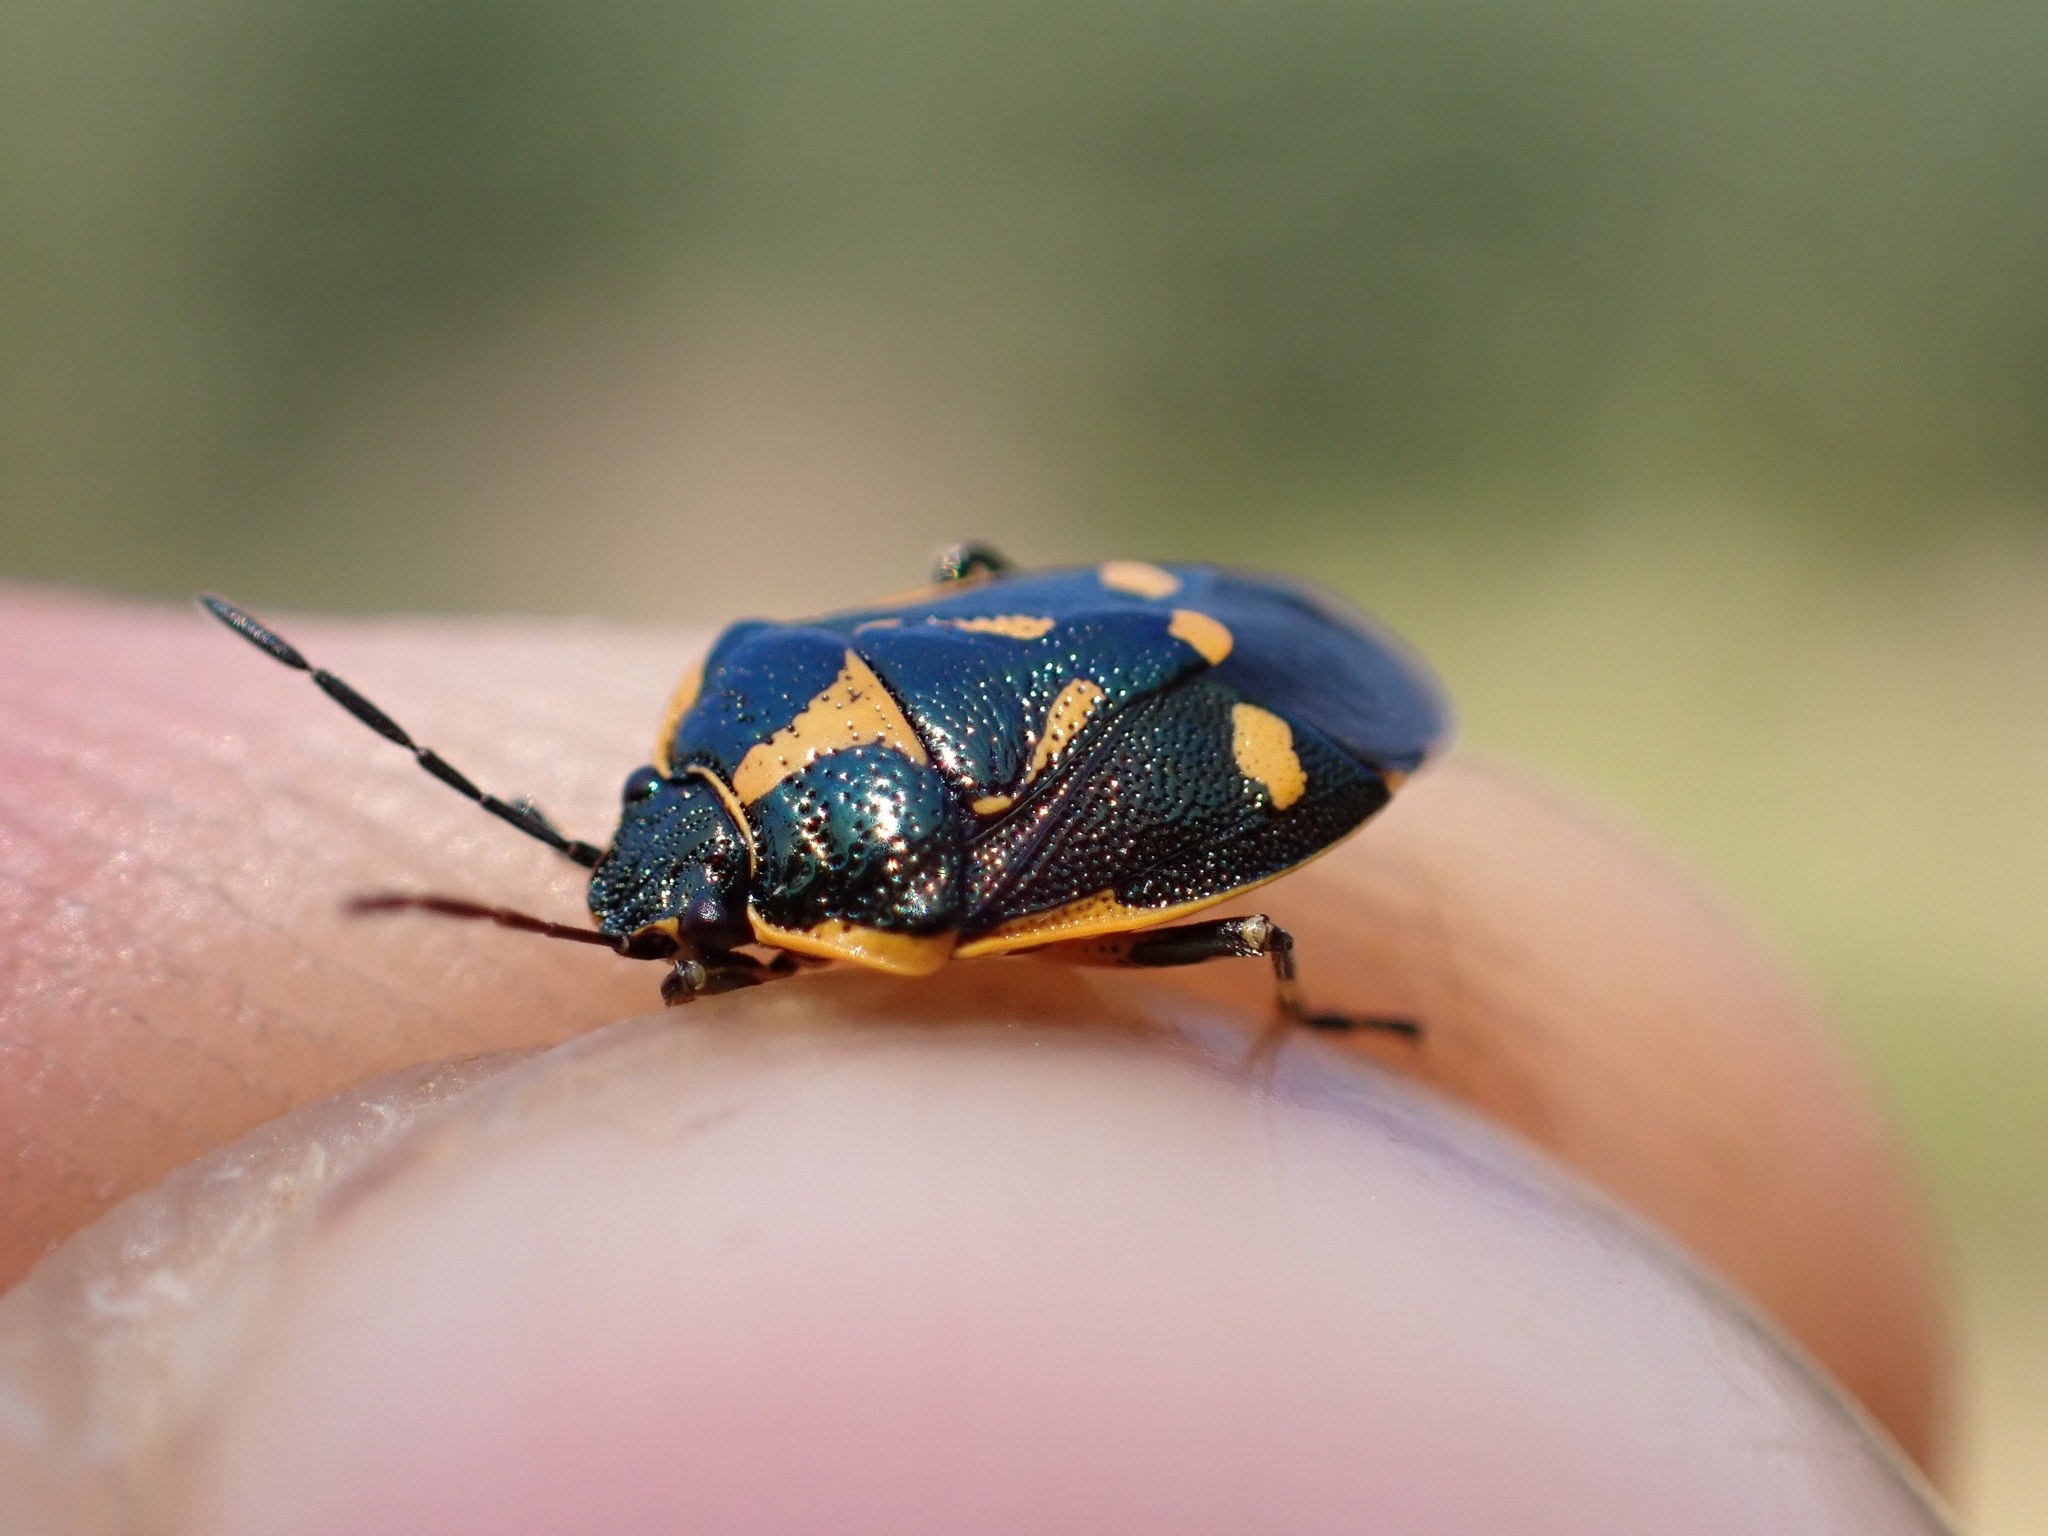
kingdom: Animalia
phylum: Arthropoda
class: Insecta
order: Hemiptera
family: Pentatomidae
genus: Eurydema
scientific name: Eurydema oleracea
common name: Cabbage bug
